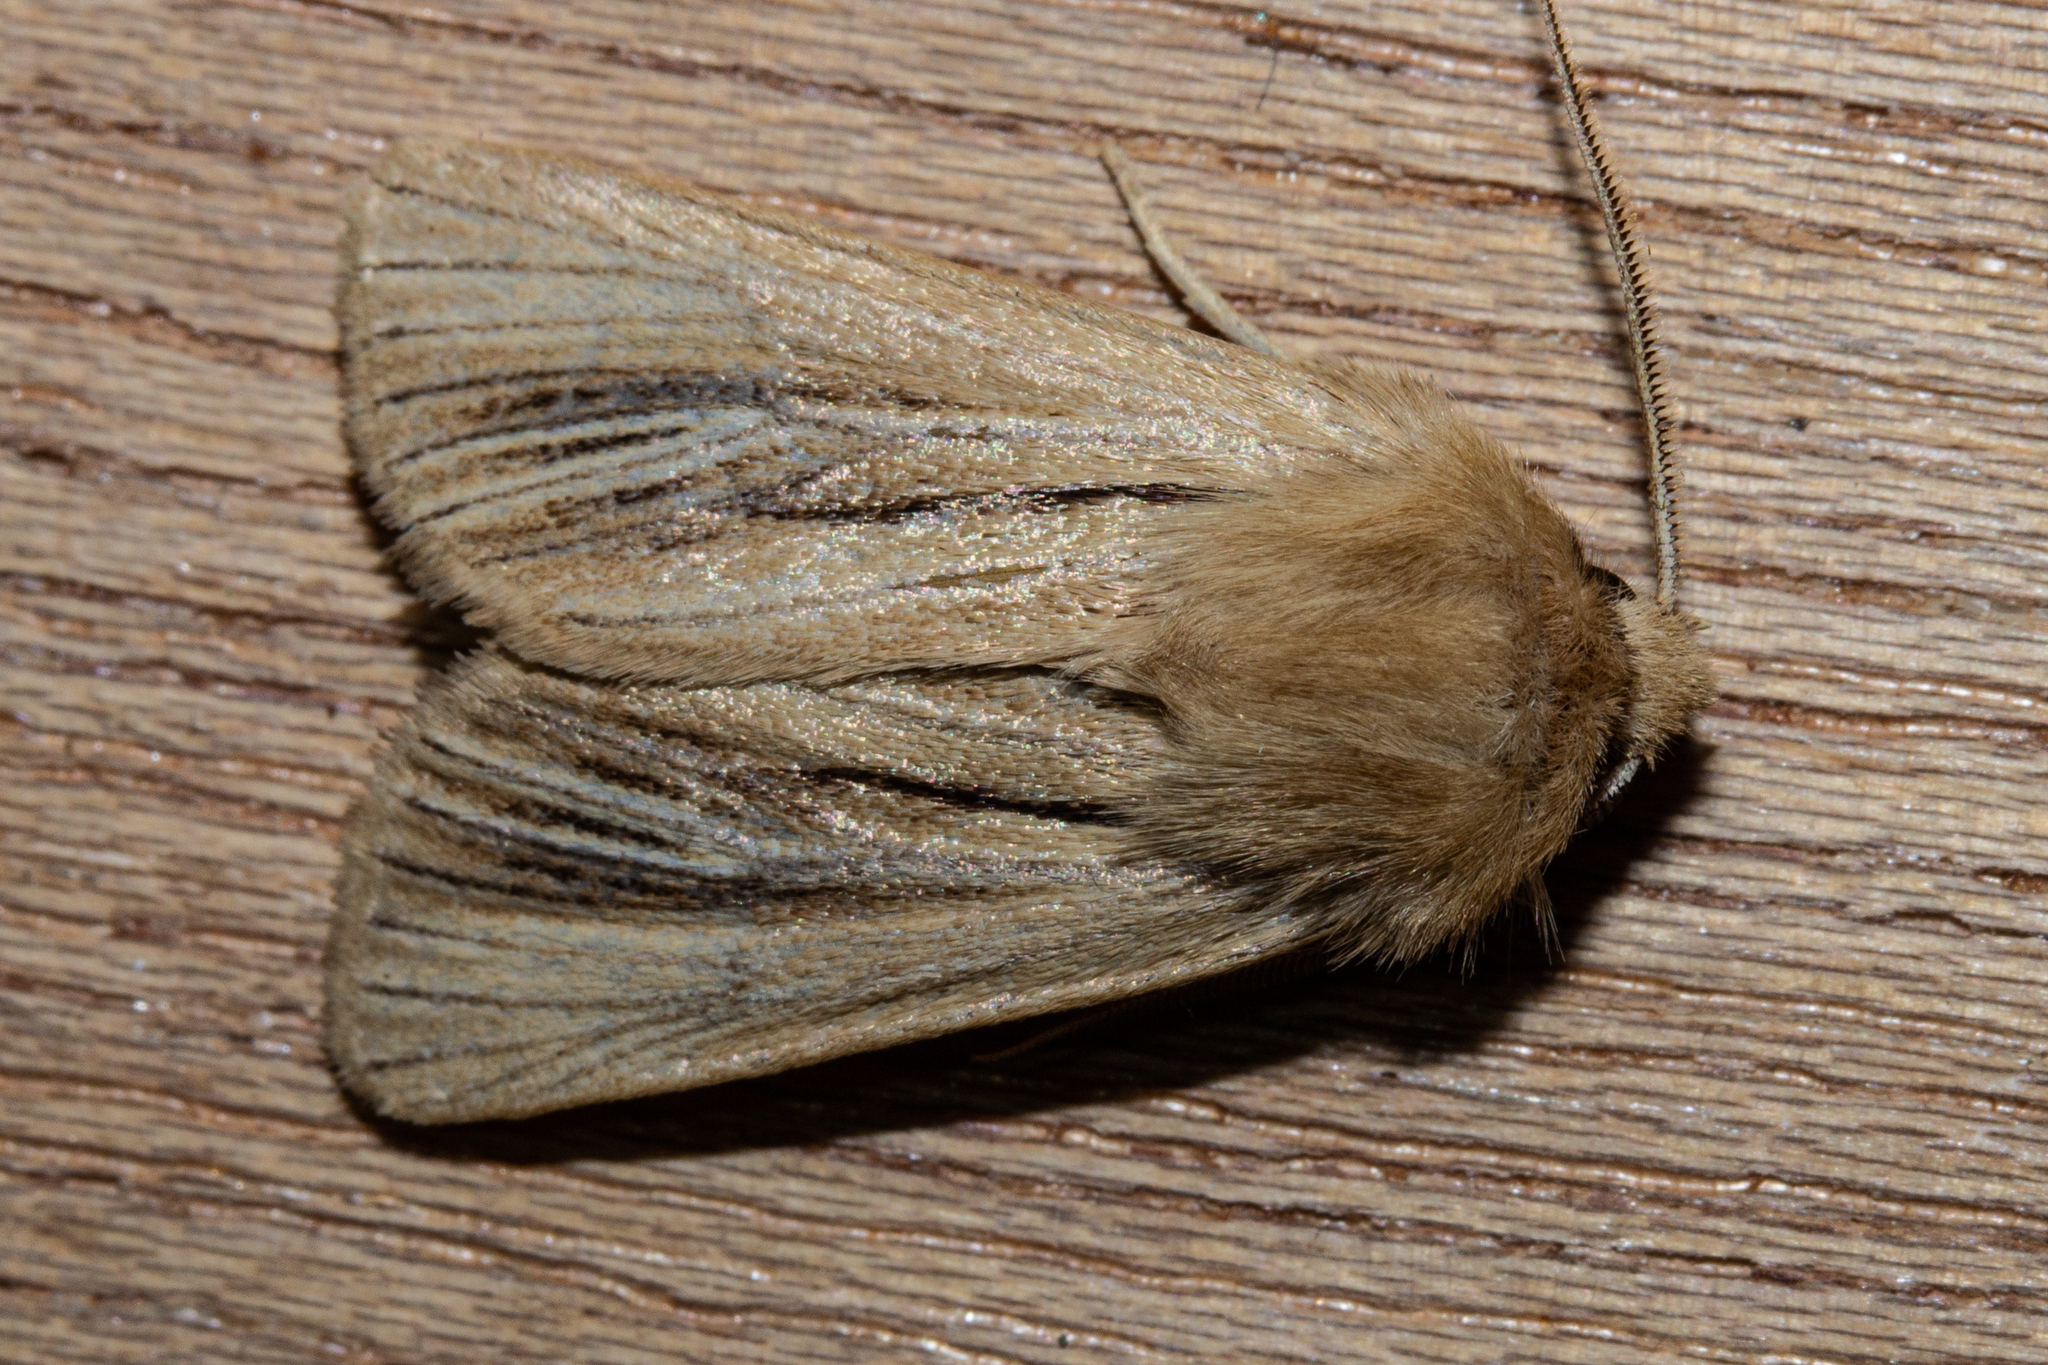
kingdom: Animalia
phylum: Arthropoda
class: Insecta
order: Lepidoptera
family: Noctuidae
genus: Ichneutica
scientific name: Ichneutica
